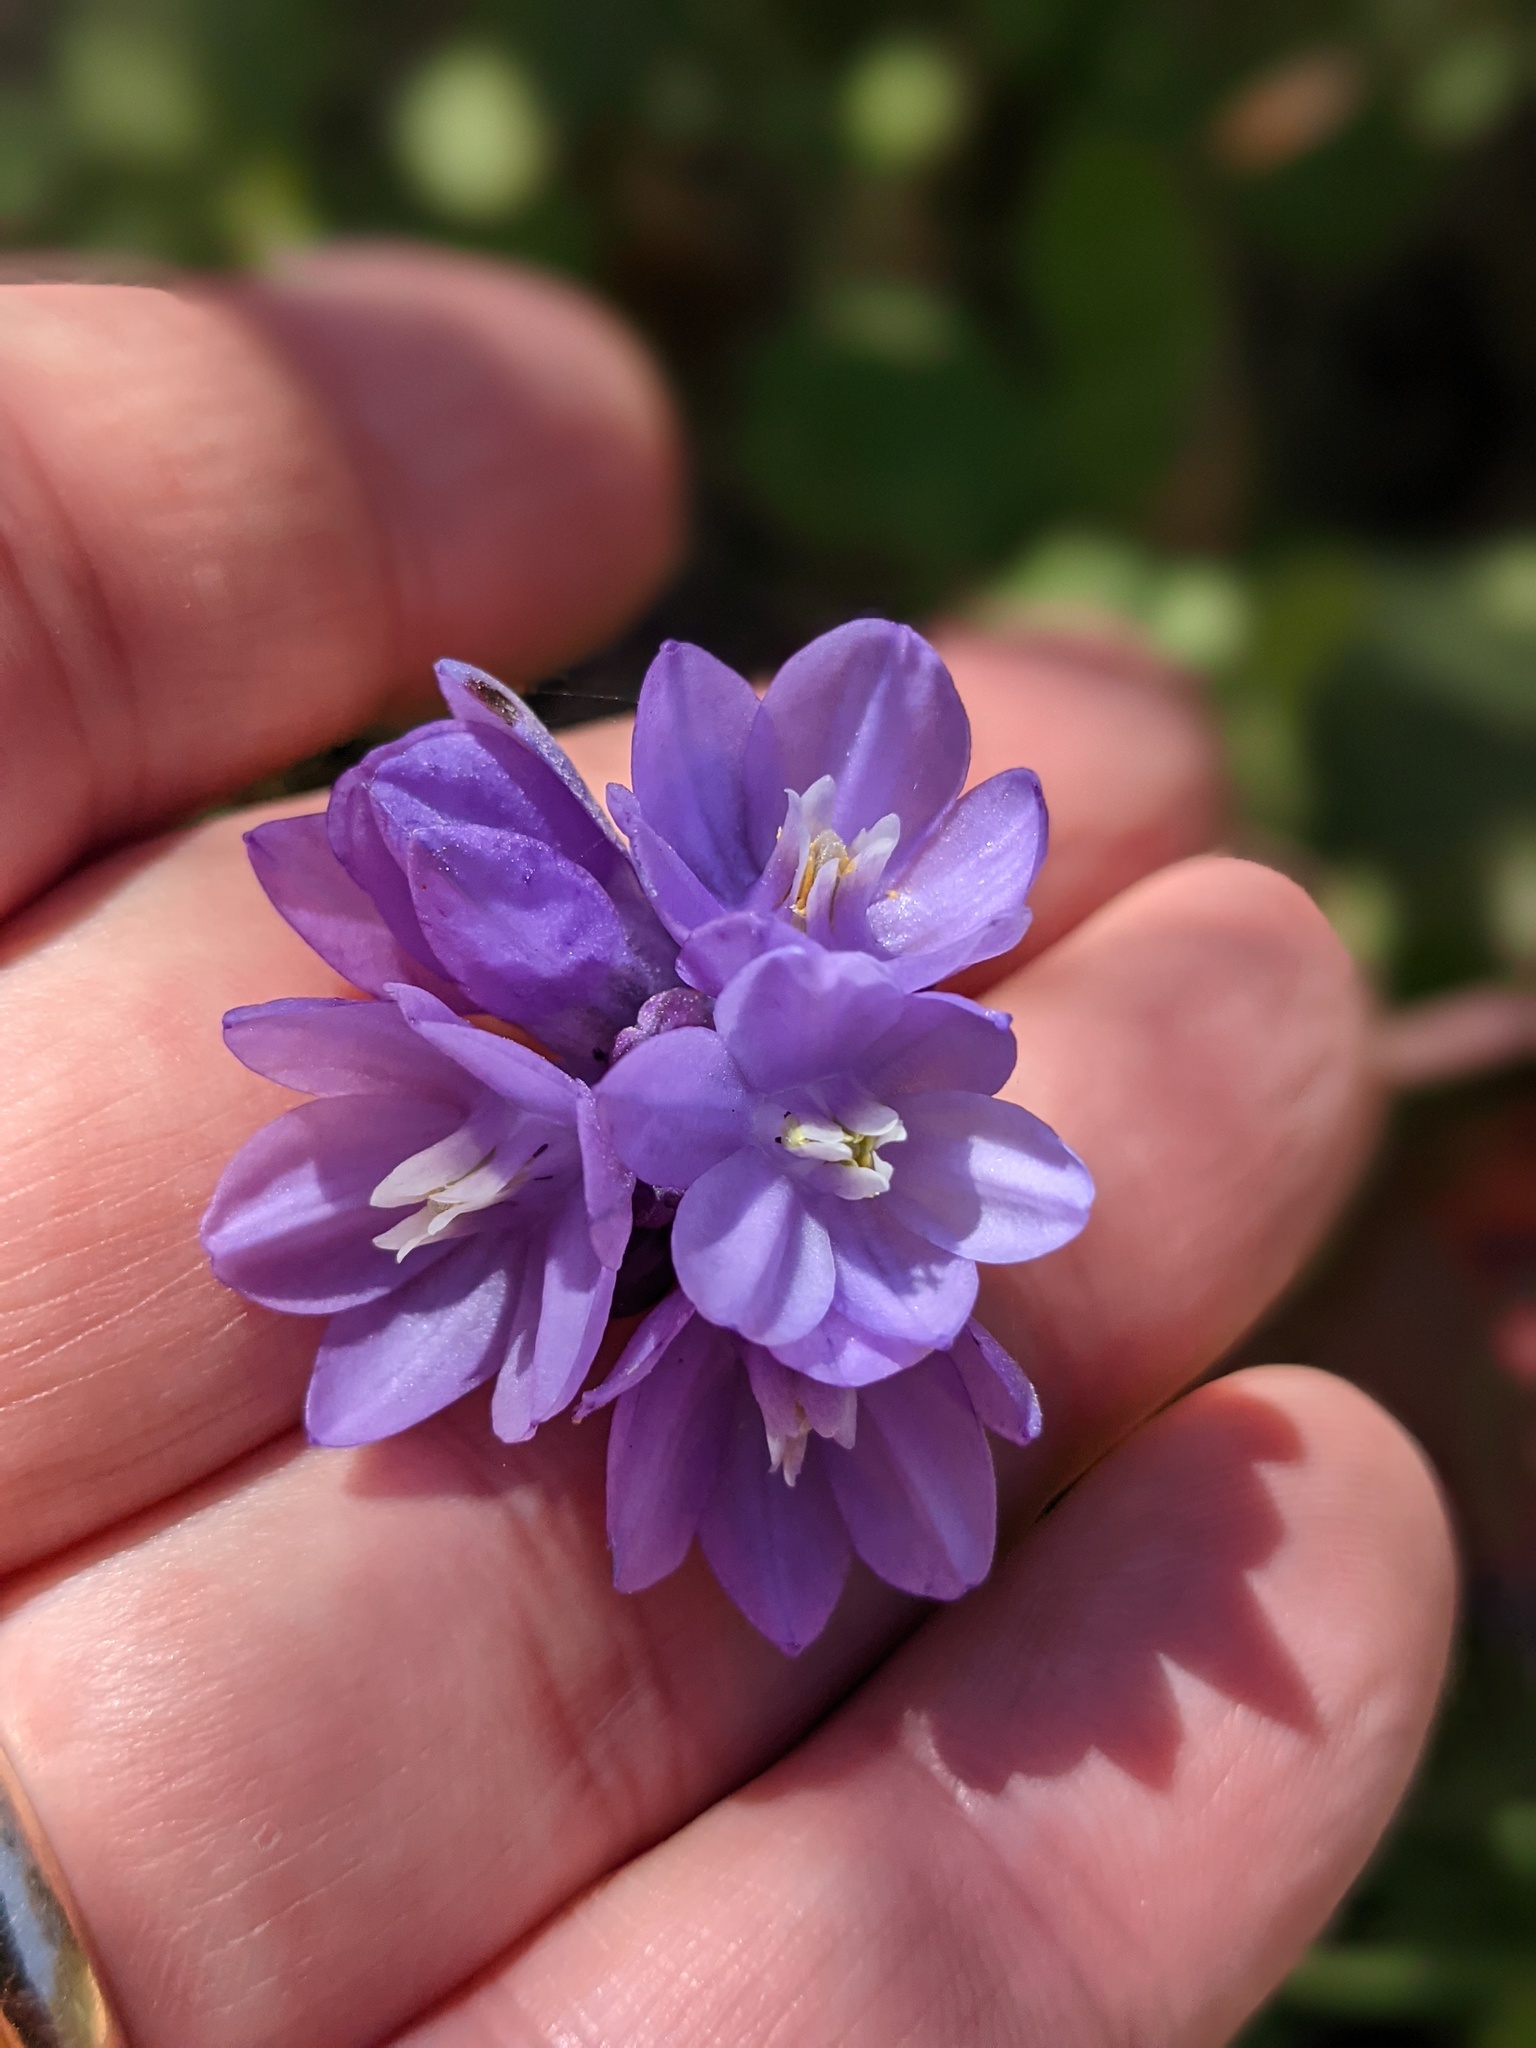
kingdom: Plantae
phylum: Tracheophyta
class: Liliopsida
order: Asparagales
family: Asparagaceae
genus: Dipterostemon
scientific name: Dipterostemon capitatus
